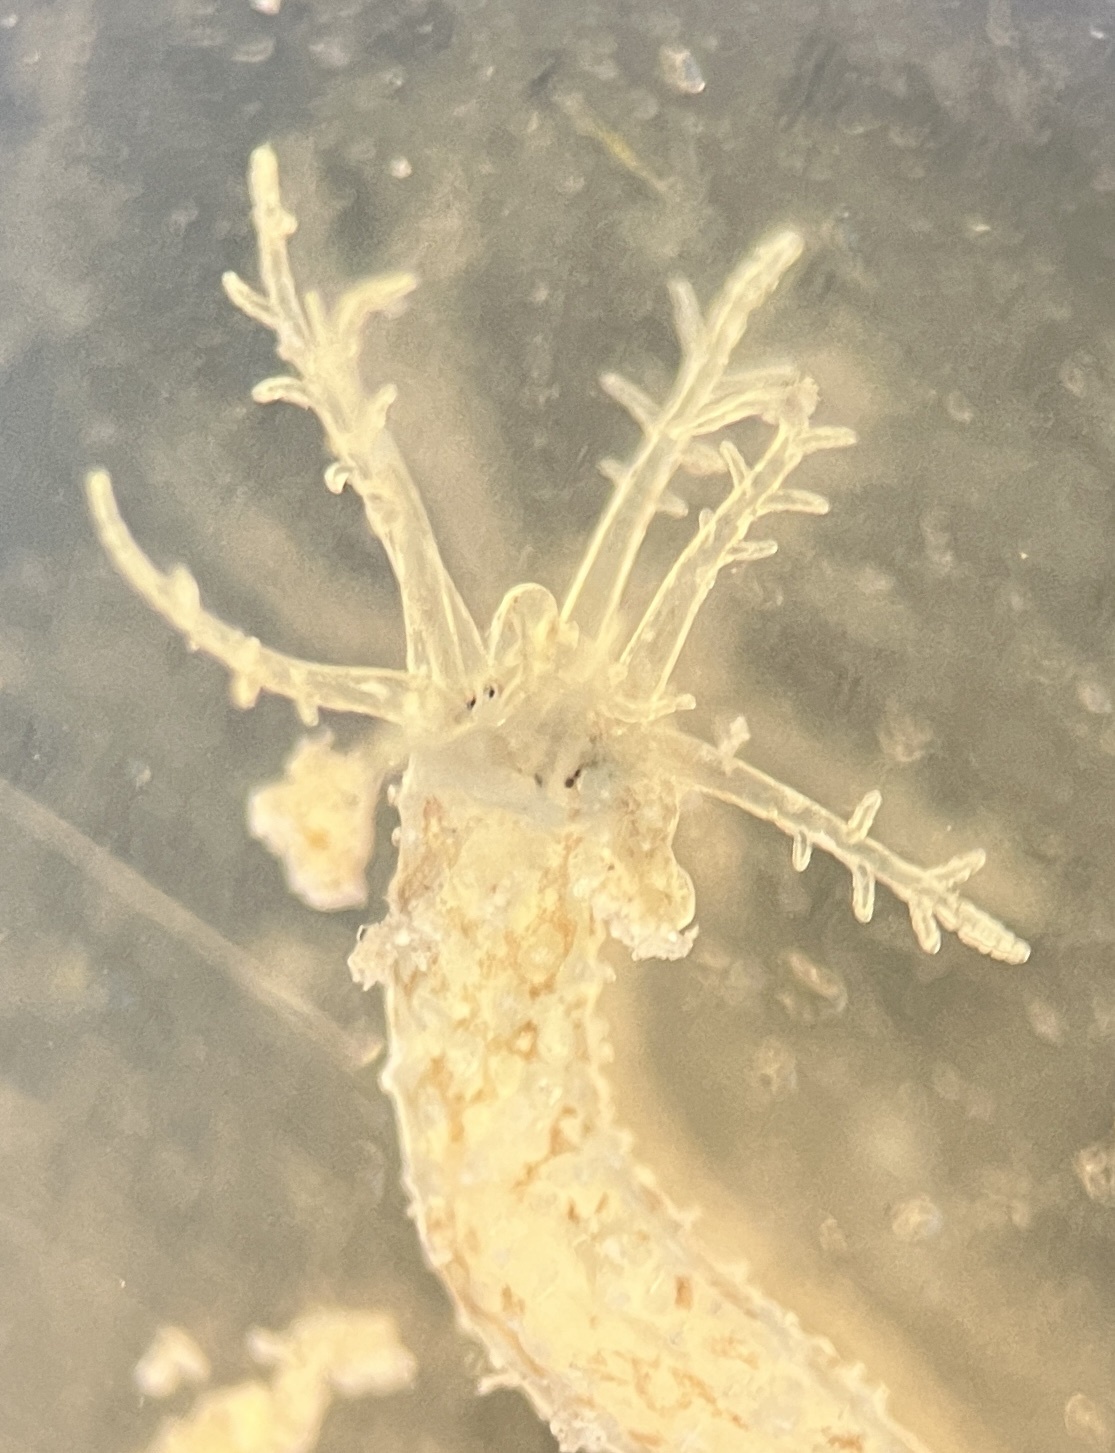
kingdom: Animalia
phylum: Echinodermata
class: Holothuroidea
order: Apodida
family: Synaptidae
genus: Synaptula
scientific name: Synaptula hydriformis
